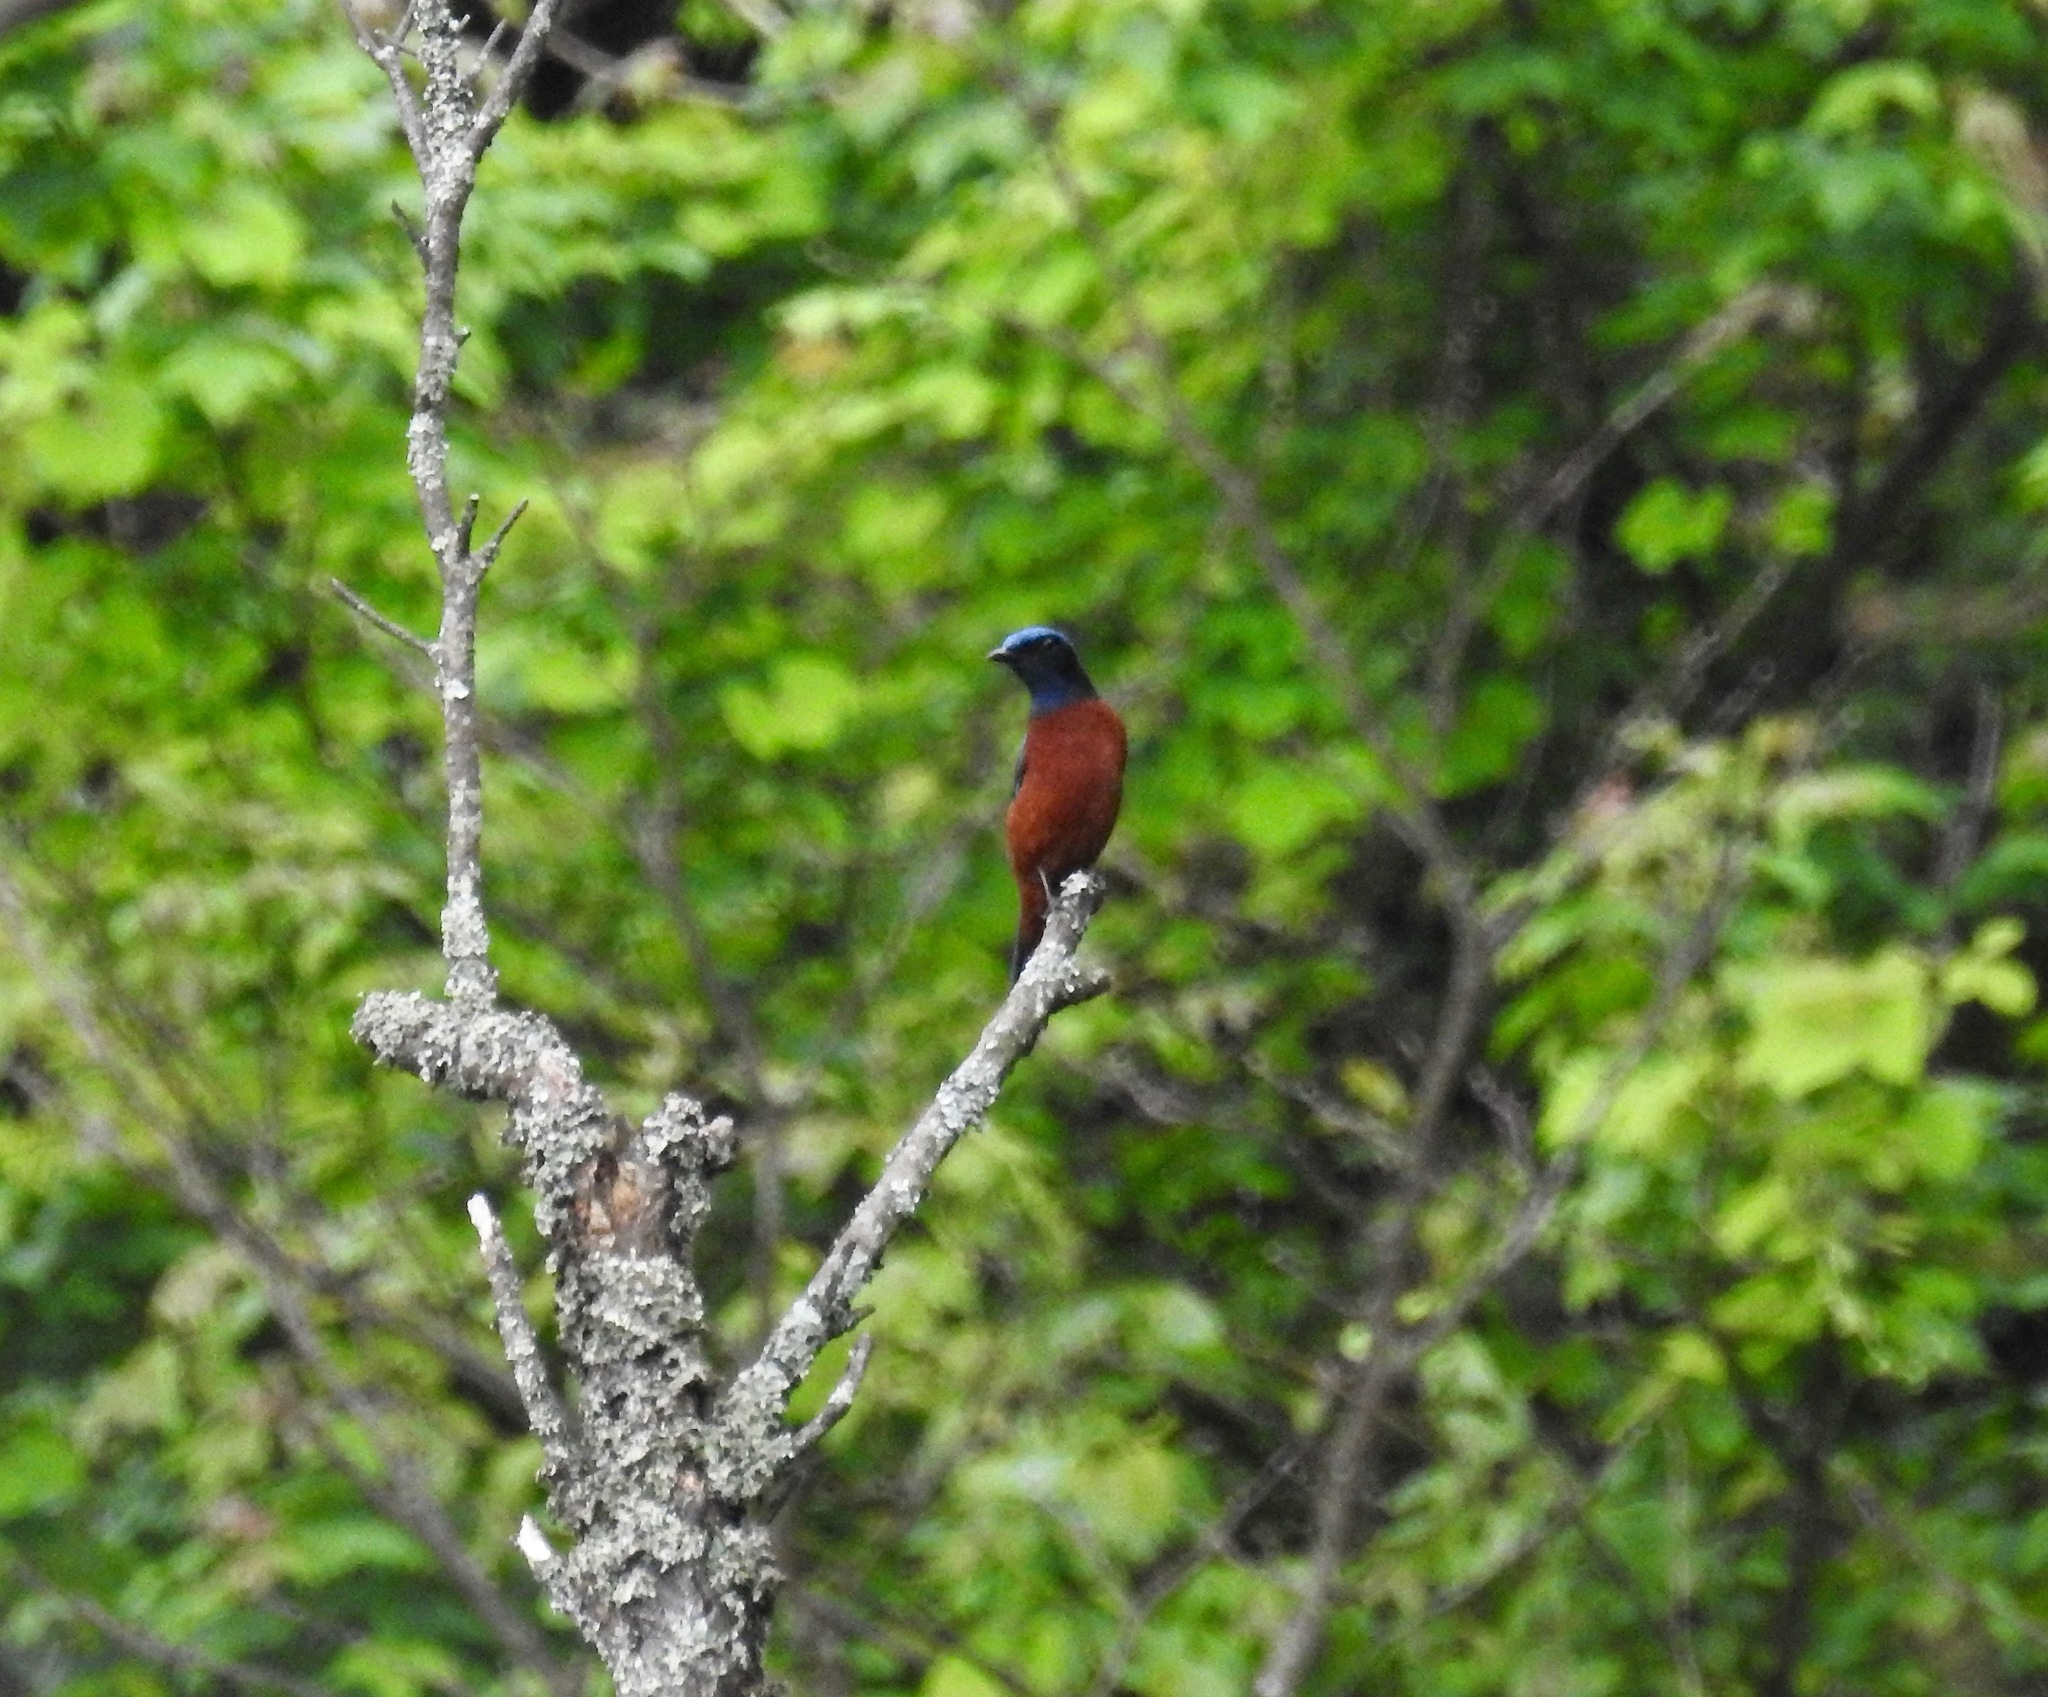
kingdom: Animalia
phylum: Chordata
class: Aves
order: Passeriformes
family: Muscicapidae
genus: Monticola
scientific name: Monticola rufiventris
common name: Chestnut-bellied rock thrush
